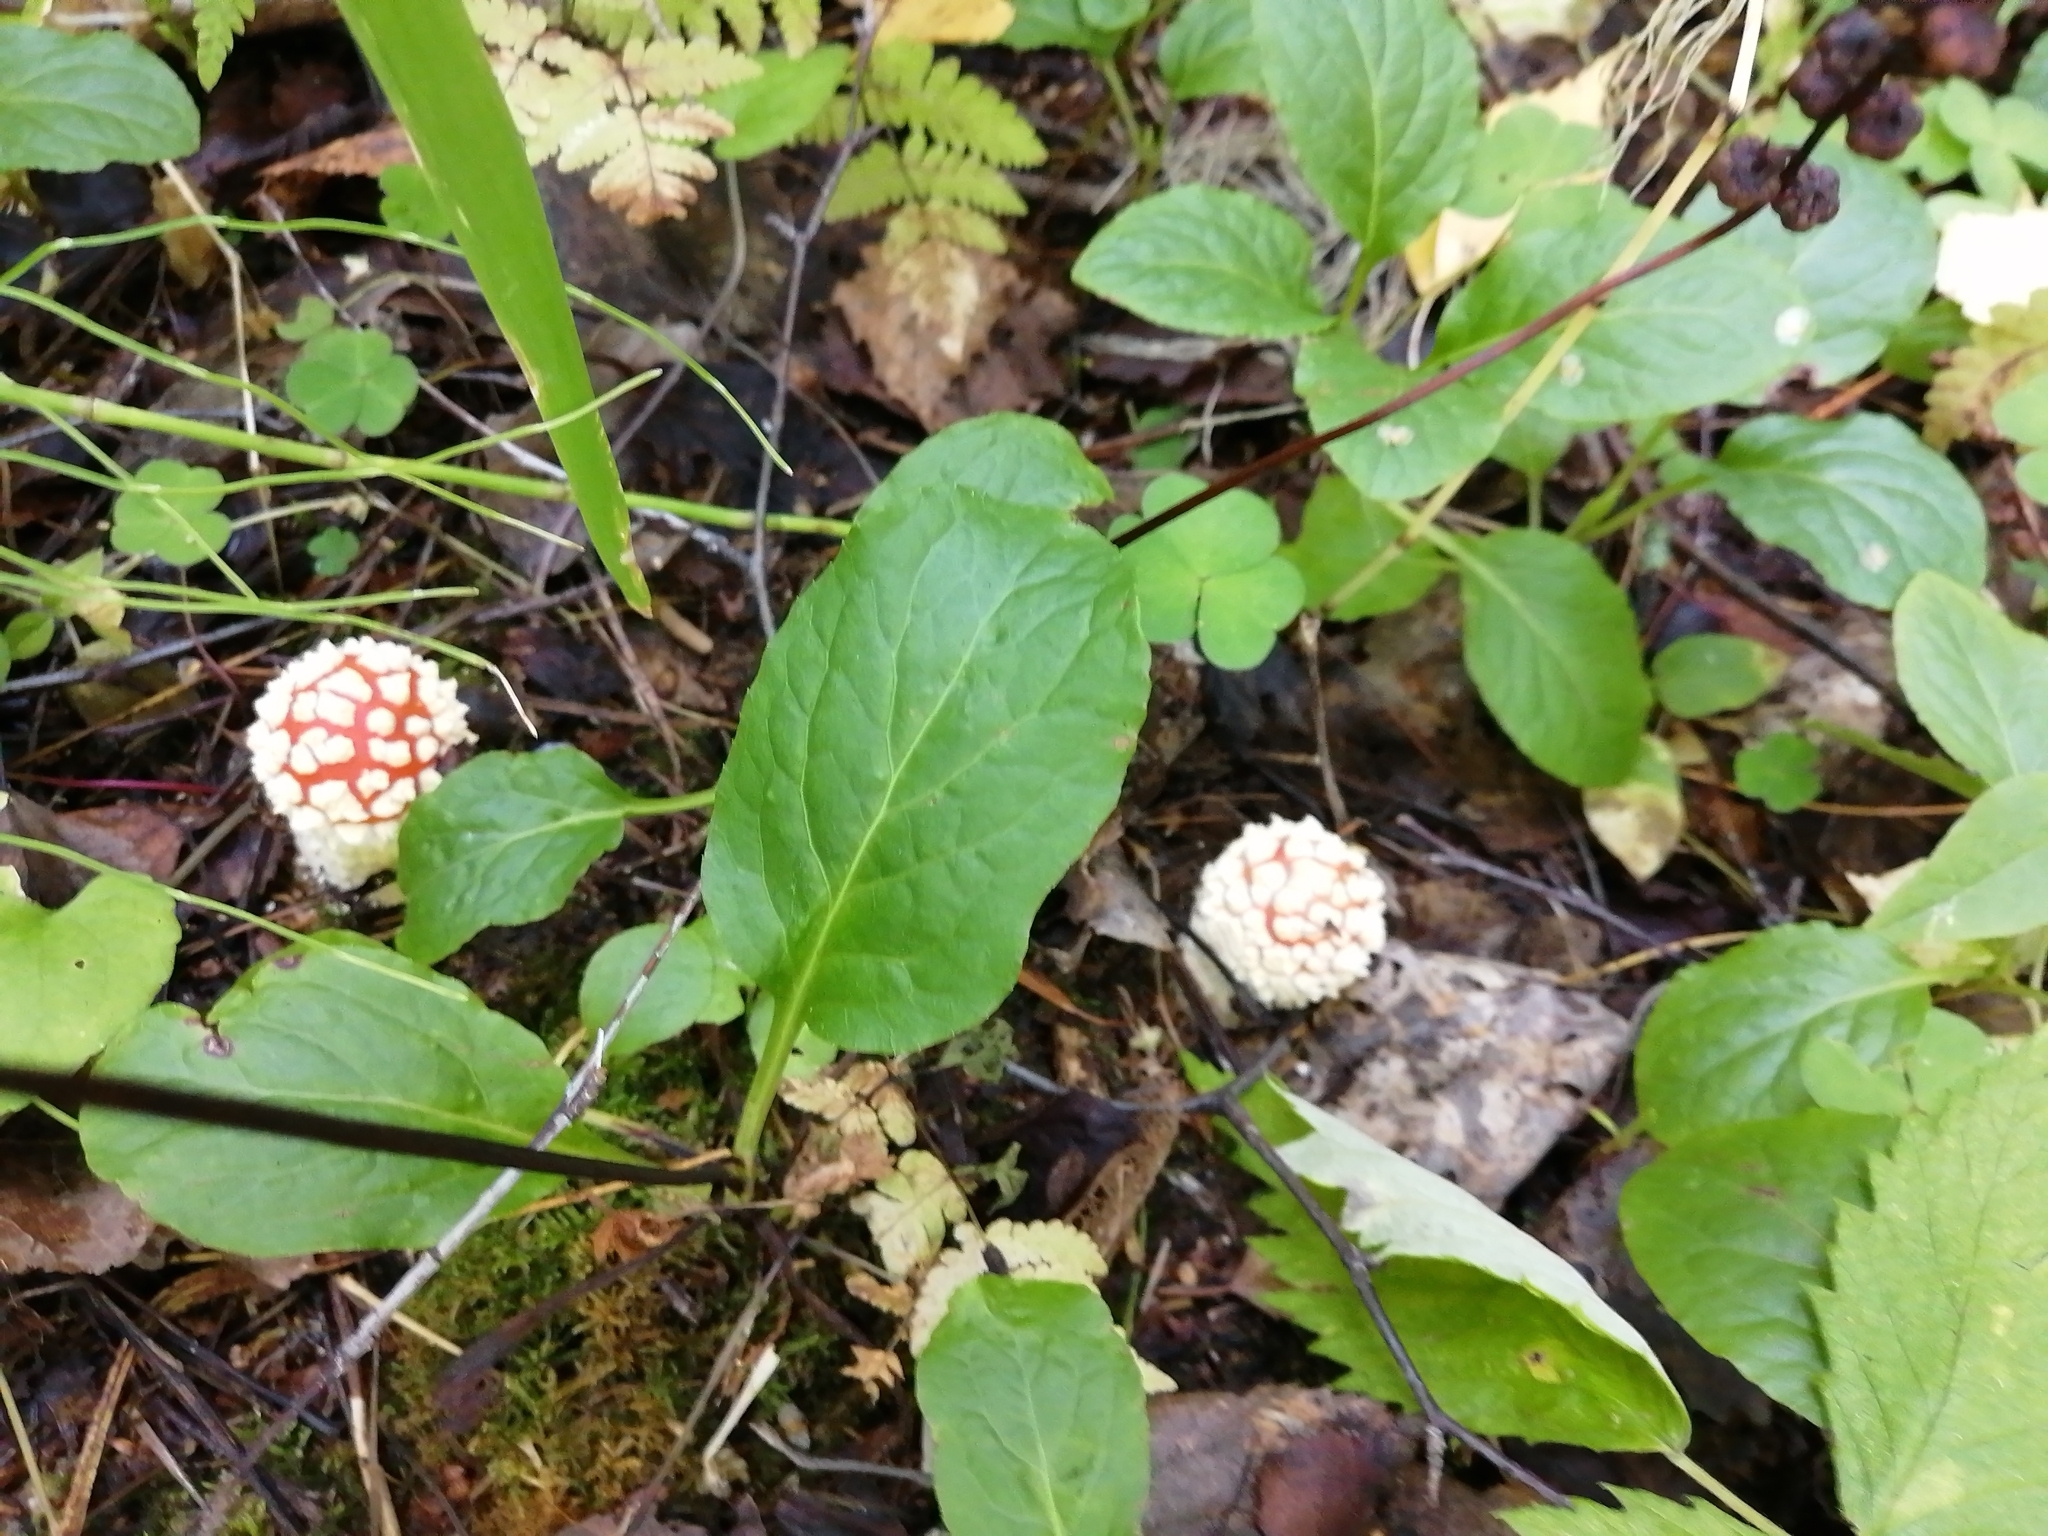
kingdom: Fungi
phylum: Basidiomycota
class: Agaricomycetes
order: Agaricales
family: Amanitaceae
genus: Amanita
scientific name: Amanita muscaria
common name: Fly agaric
